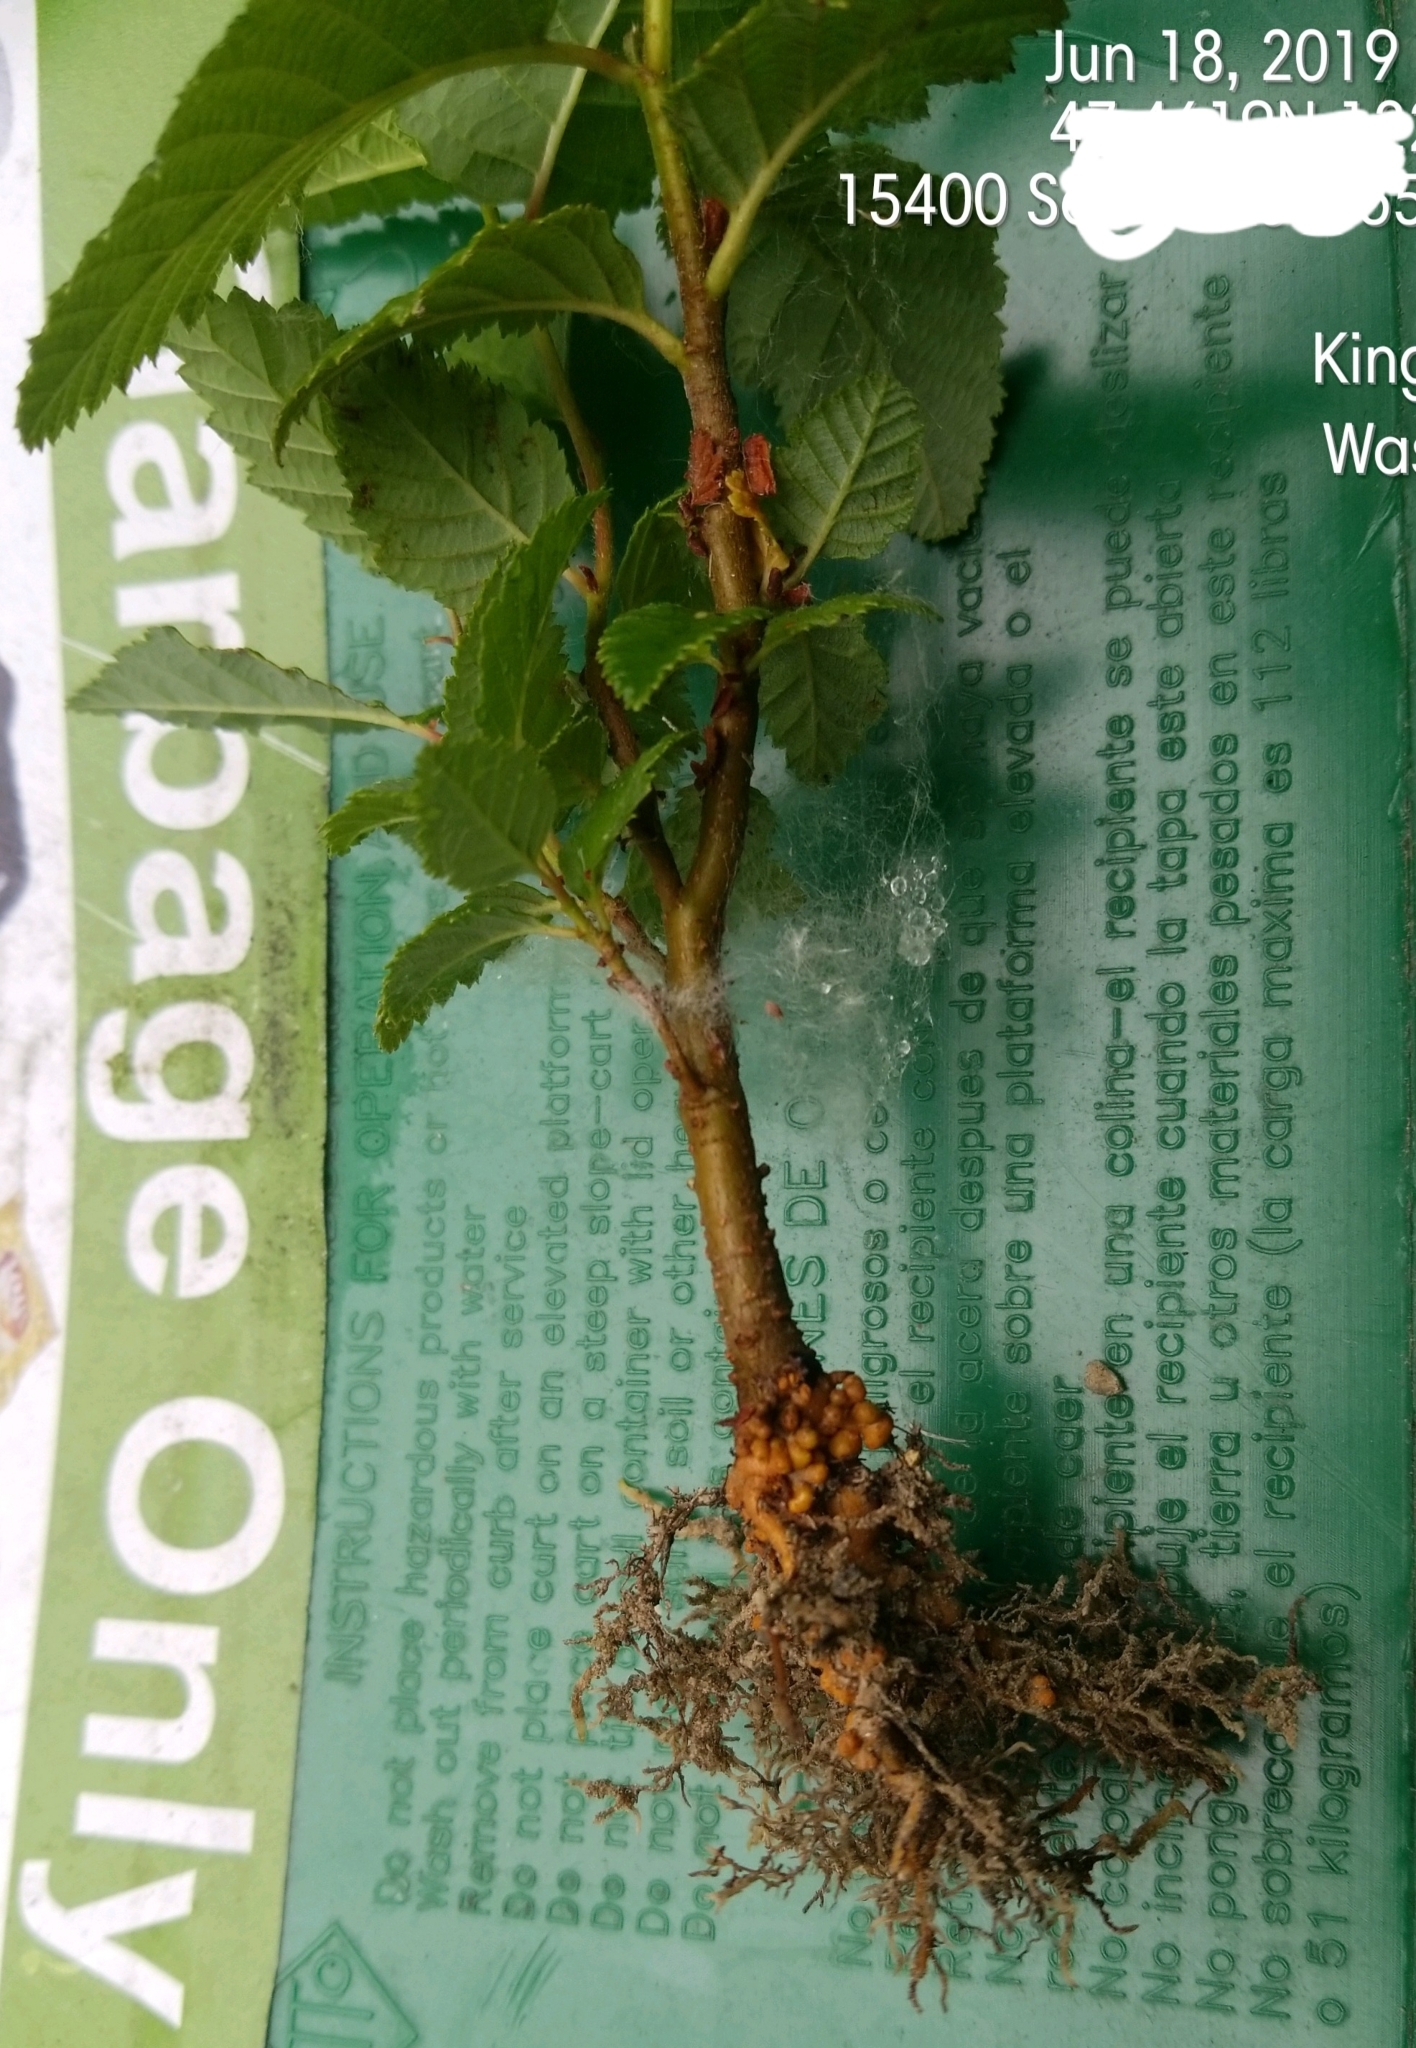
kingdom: Plantae
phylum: Tracheophyta
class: Magnoliopsida
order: Fagales
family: Betulaceae
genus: Alnus
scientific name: Alnus rubra
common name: Red alder
